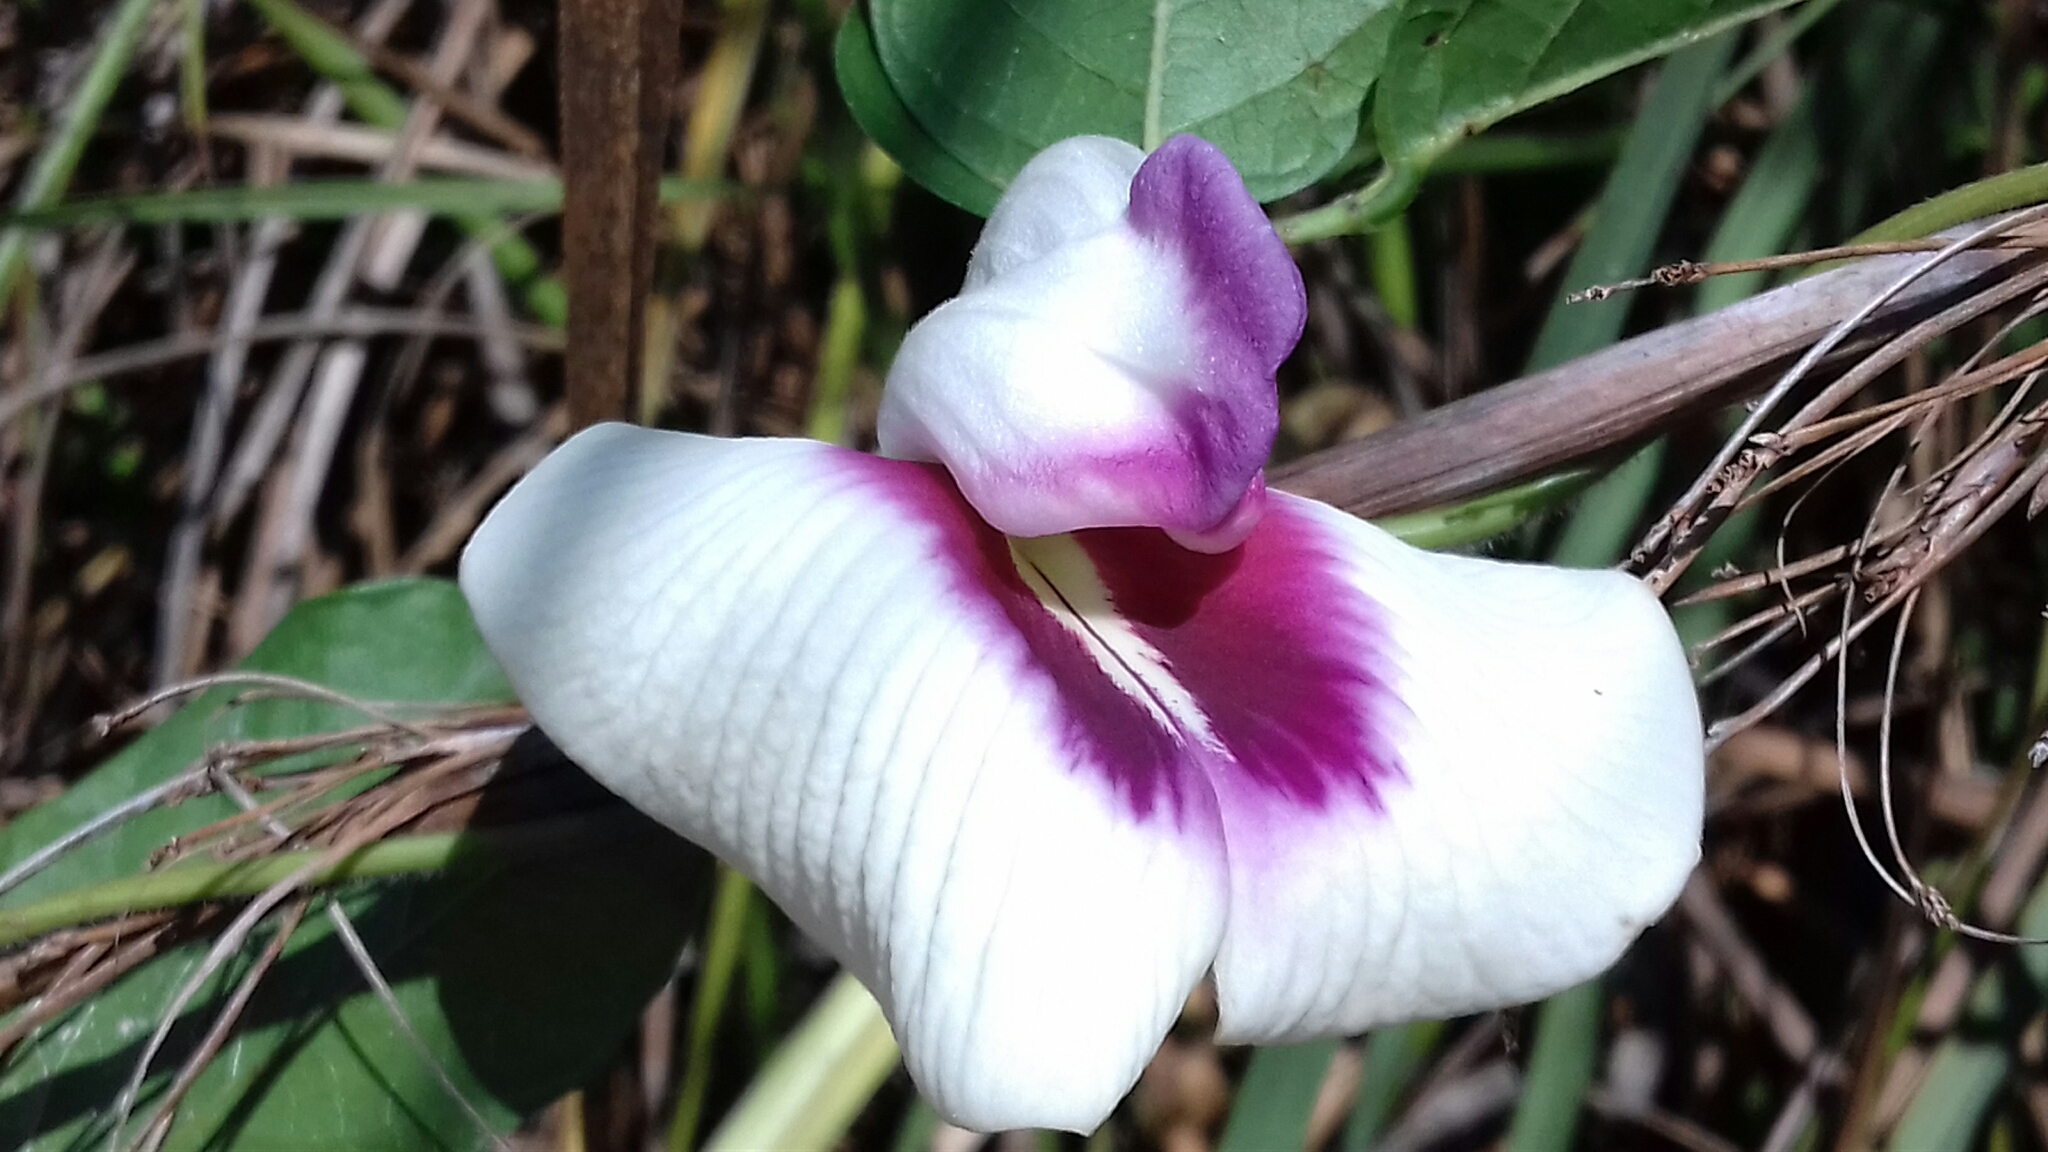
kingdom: Plantae
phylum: Tracheophyta
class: Magnoliopsida
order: Fabales
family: Fabaceae
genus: Centrosema
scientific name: Centrosema plumieri
